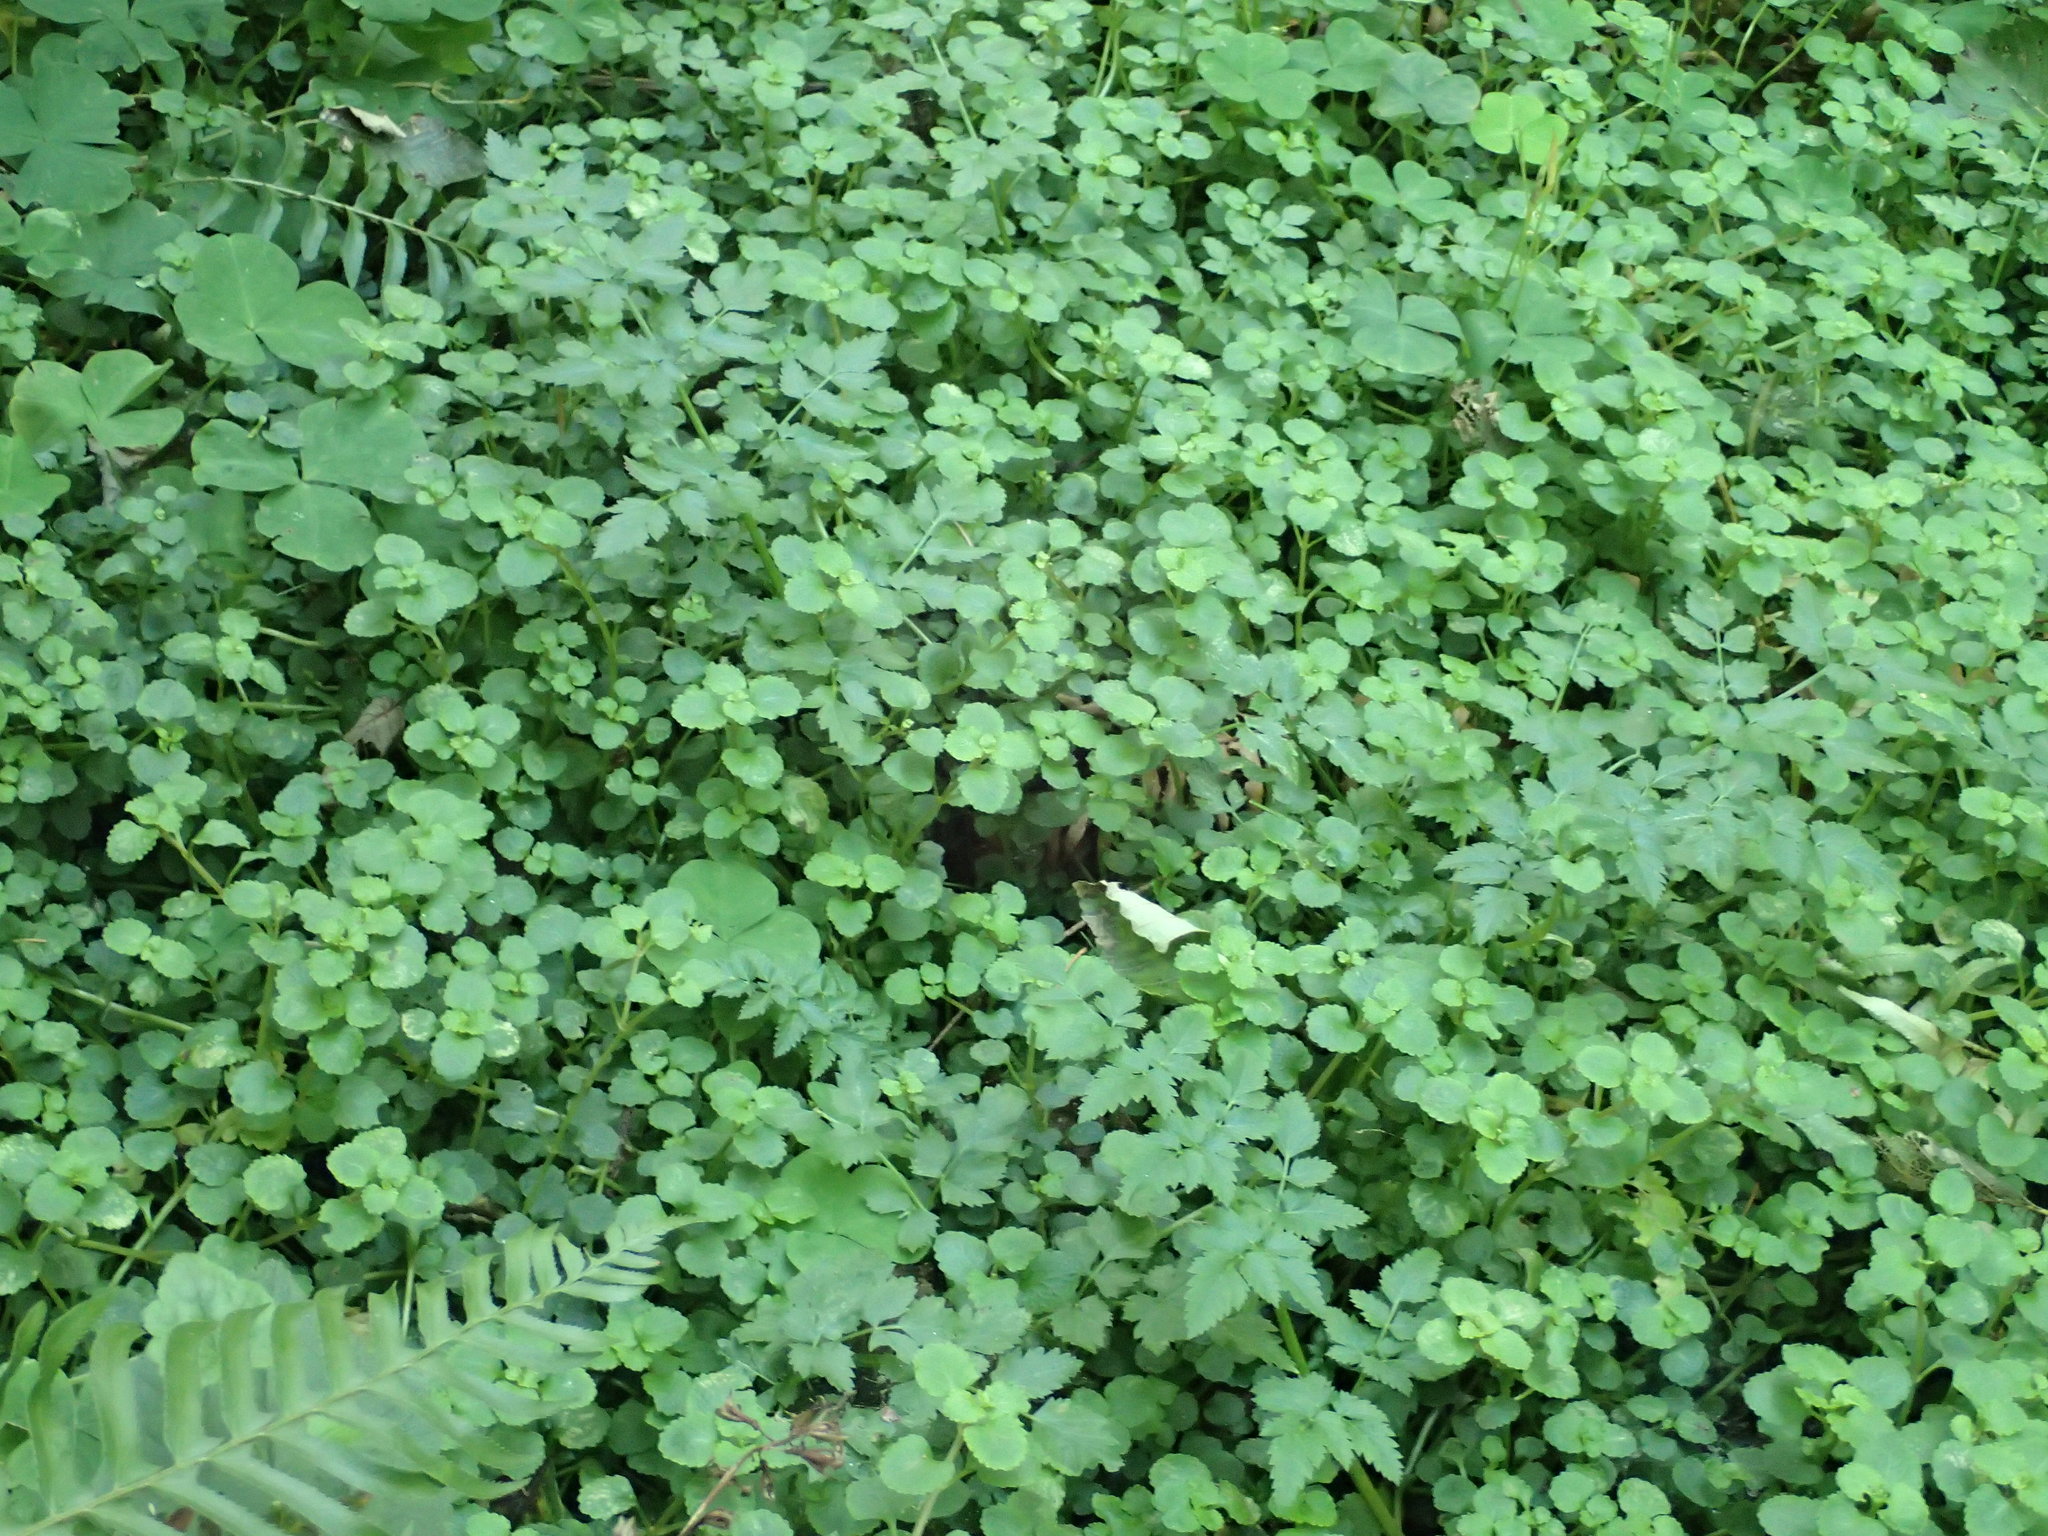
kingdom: Plantae
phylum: Tracheophyta
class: Magnoliopsida
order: Saxifragales
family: Saxifragaceae
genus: Chrysosplenium
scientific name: Chrysosplenium glechomifolium
